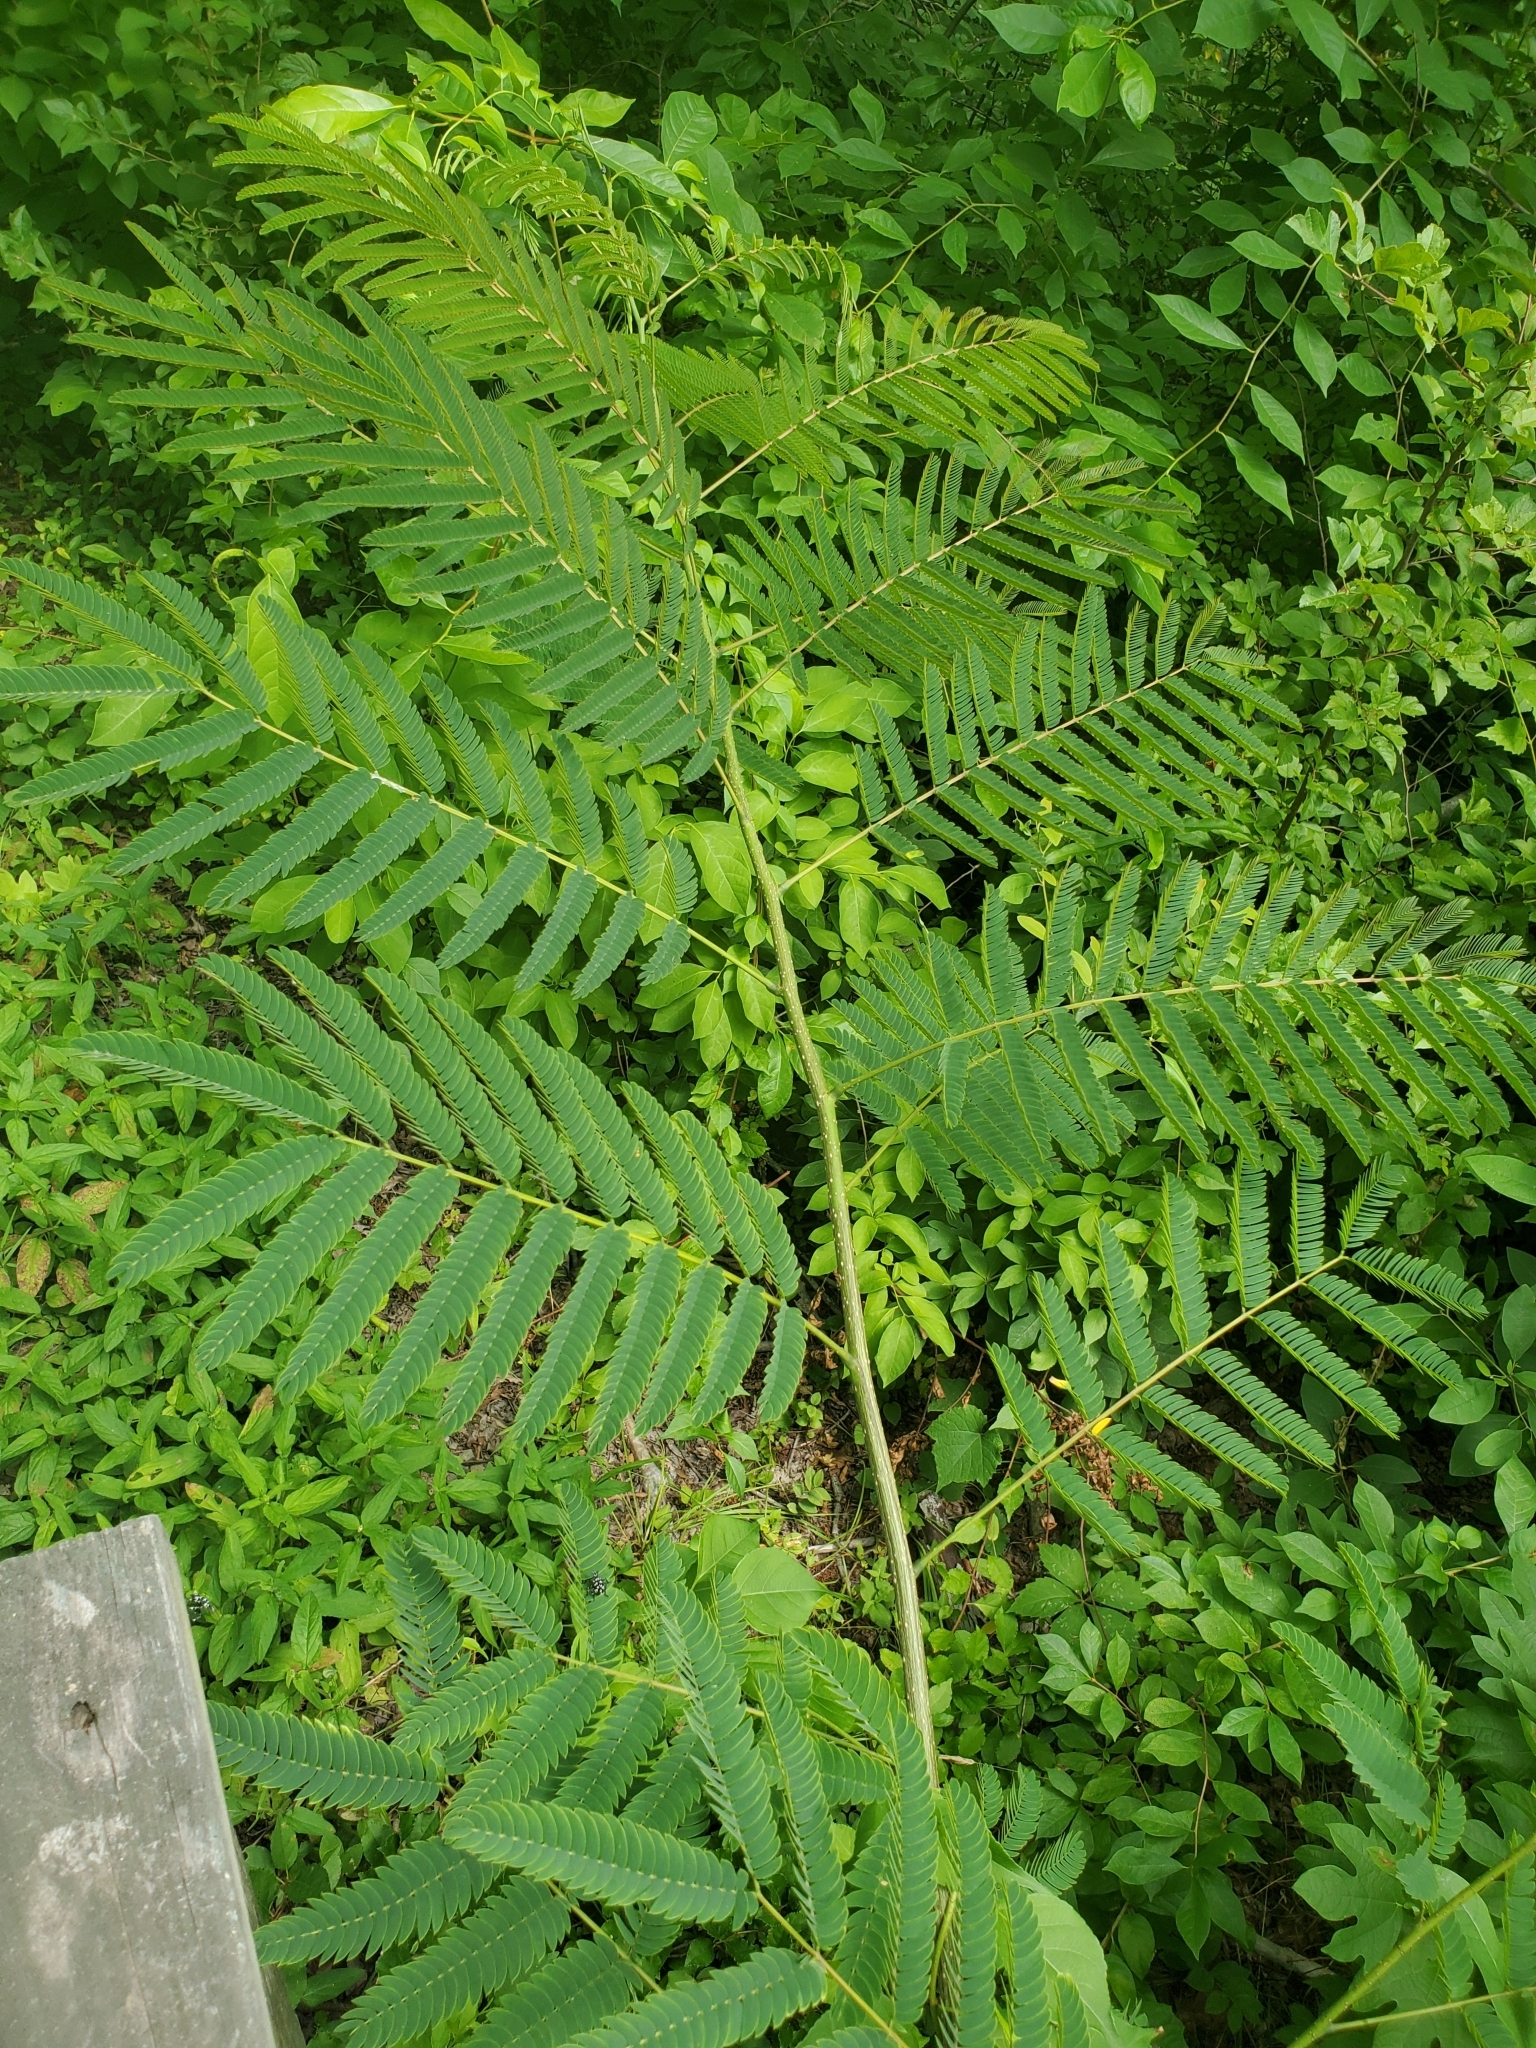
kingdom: Plantae
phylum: Tracheophyta
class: Magnoliopsida
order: Fabales
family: Fabaceae
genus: Albizia
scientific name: Albizia julibrissin
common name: Silktree
